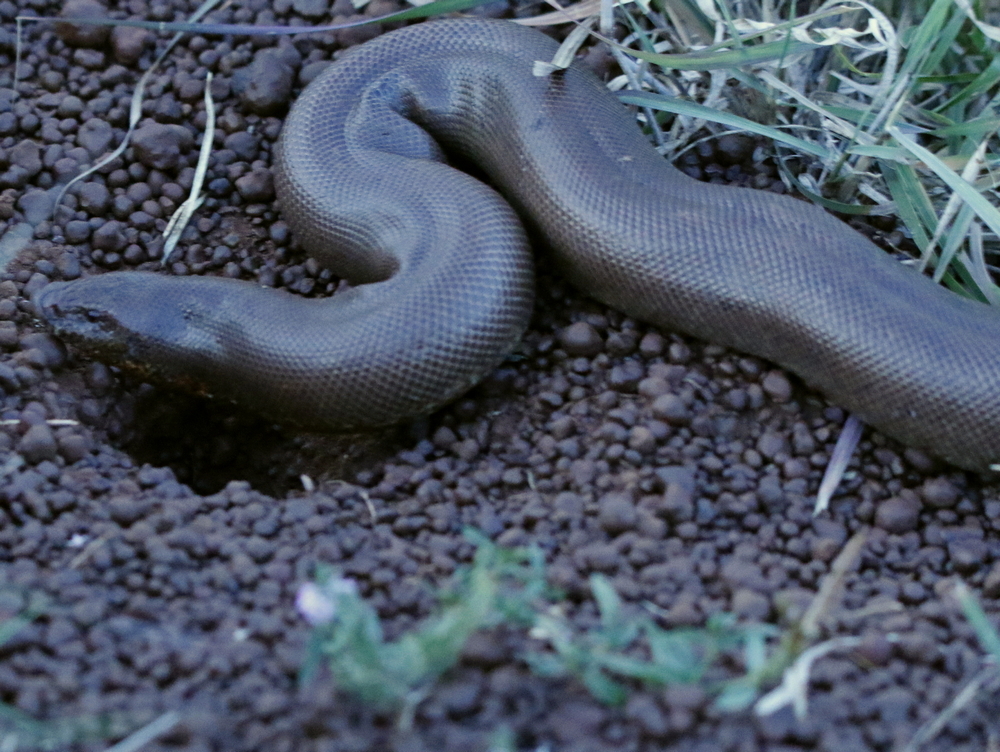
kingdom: Animalia
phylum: Chordata
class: Squamata
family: Boidae
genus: Eryx
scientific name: Eryx johnii
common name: Brown sand boa
